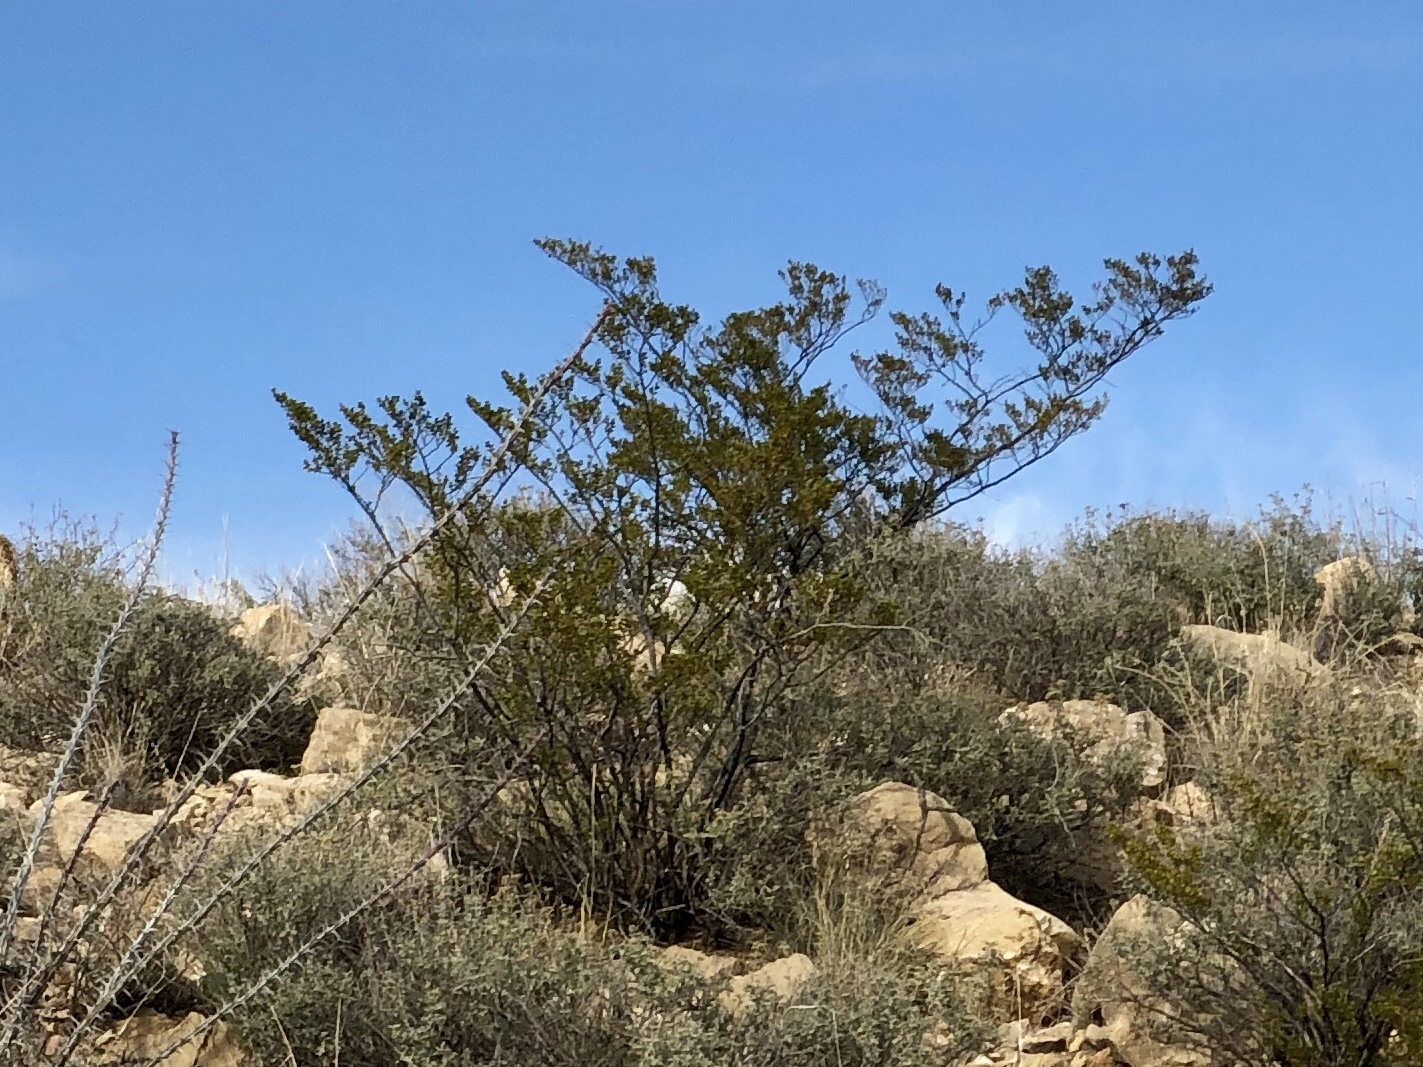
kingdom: Plantae
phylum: Tracheophyta
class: Magnoliopsida
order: Zygophyllales
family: Zygophyllaceae
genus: Larrea
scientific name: Larrea tridentata
